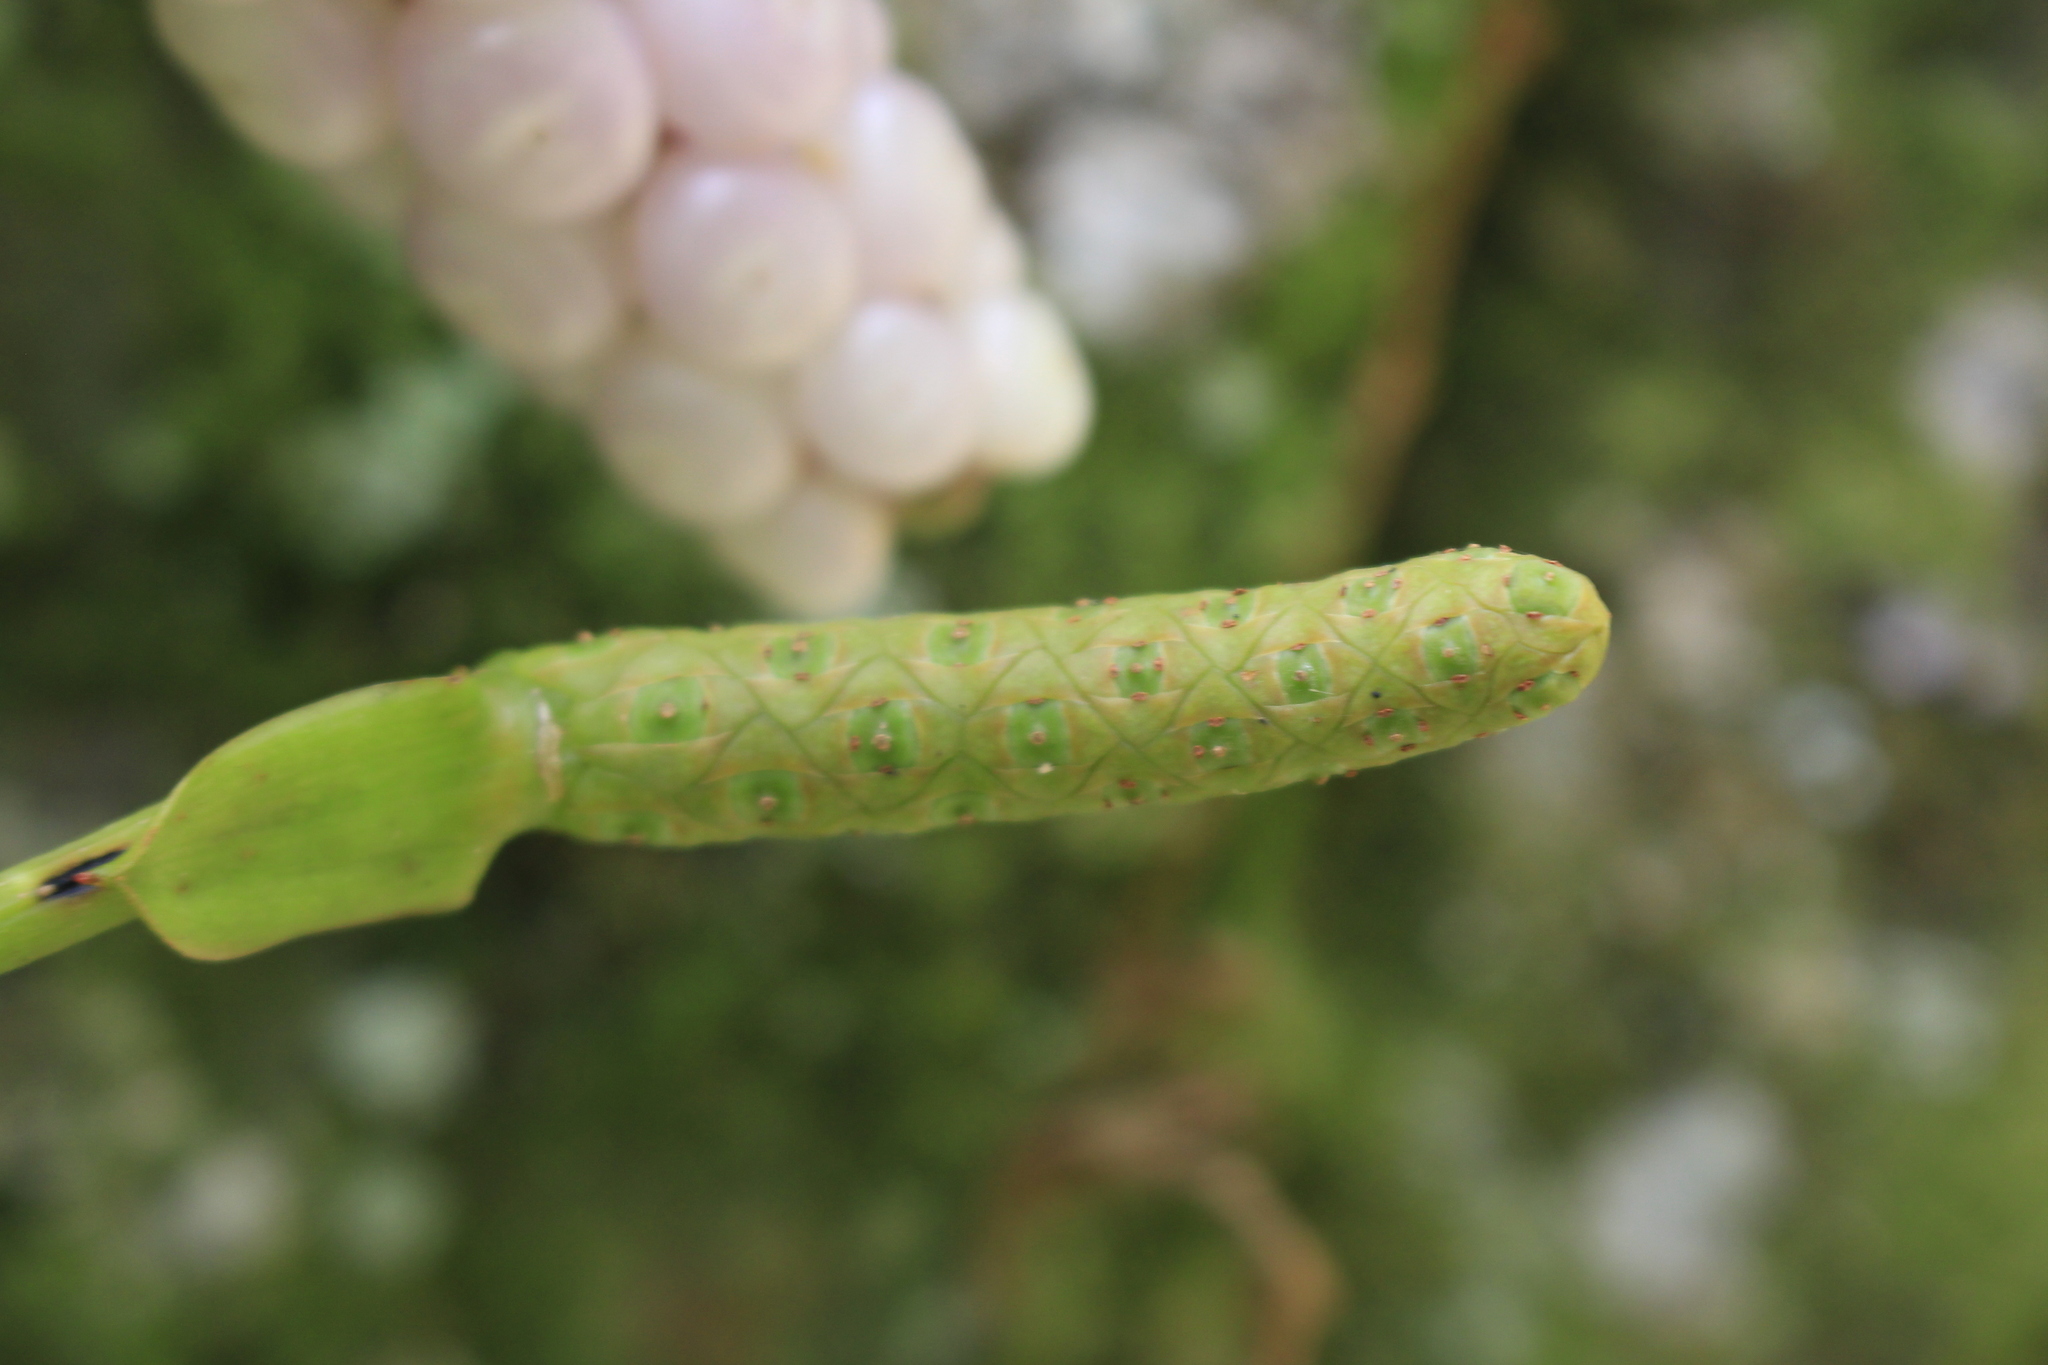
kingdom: Plantae
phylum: Tracheophyta
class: Liliopsida
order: Alismatales
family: Araceae
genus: Anthurium
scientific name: Anthurium scandens
